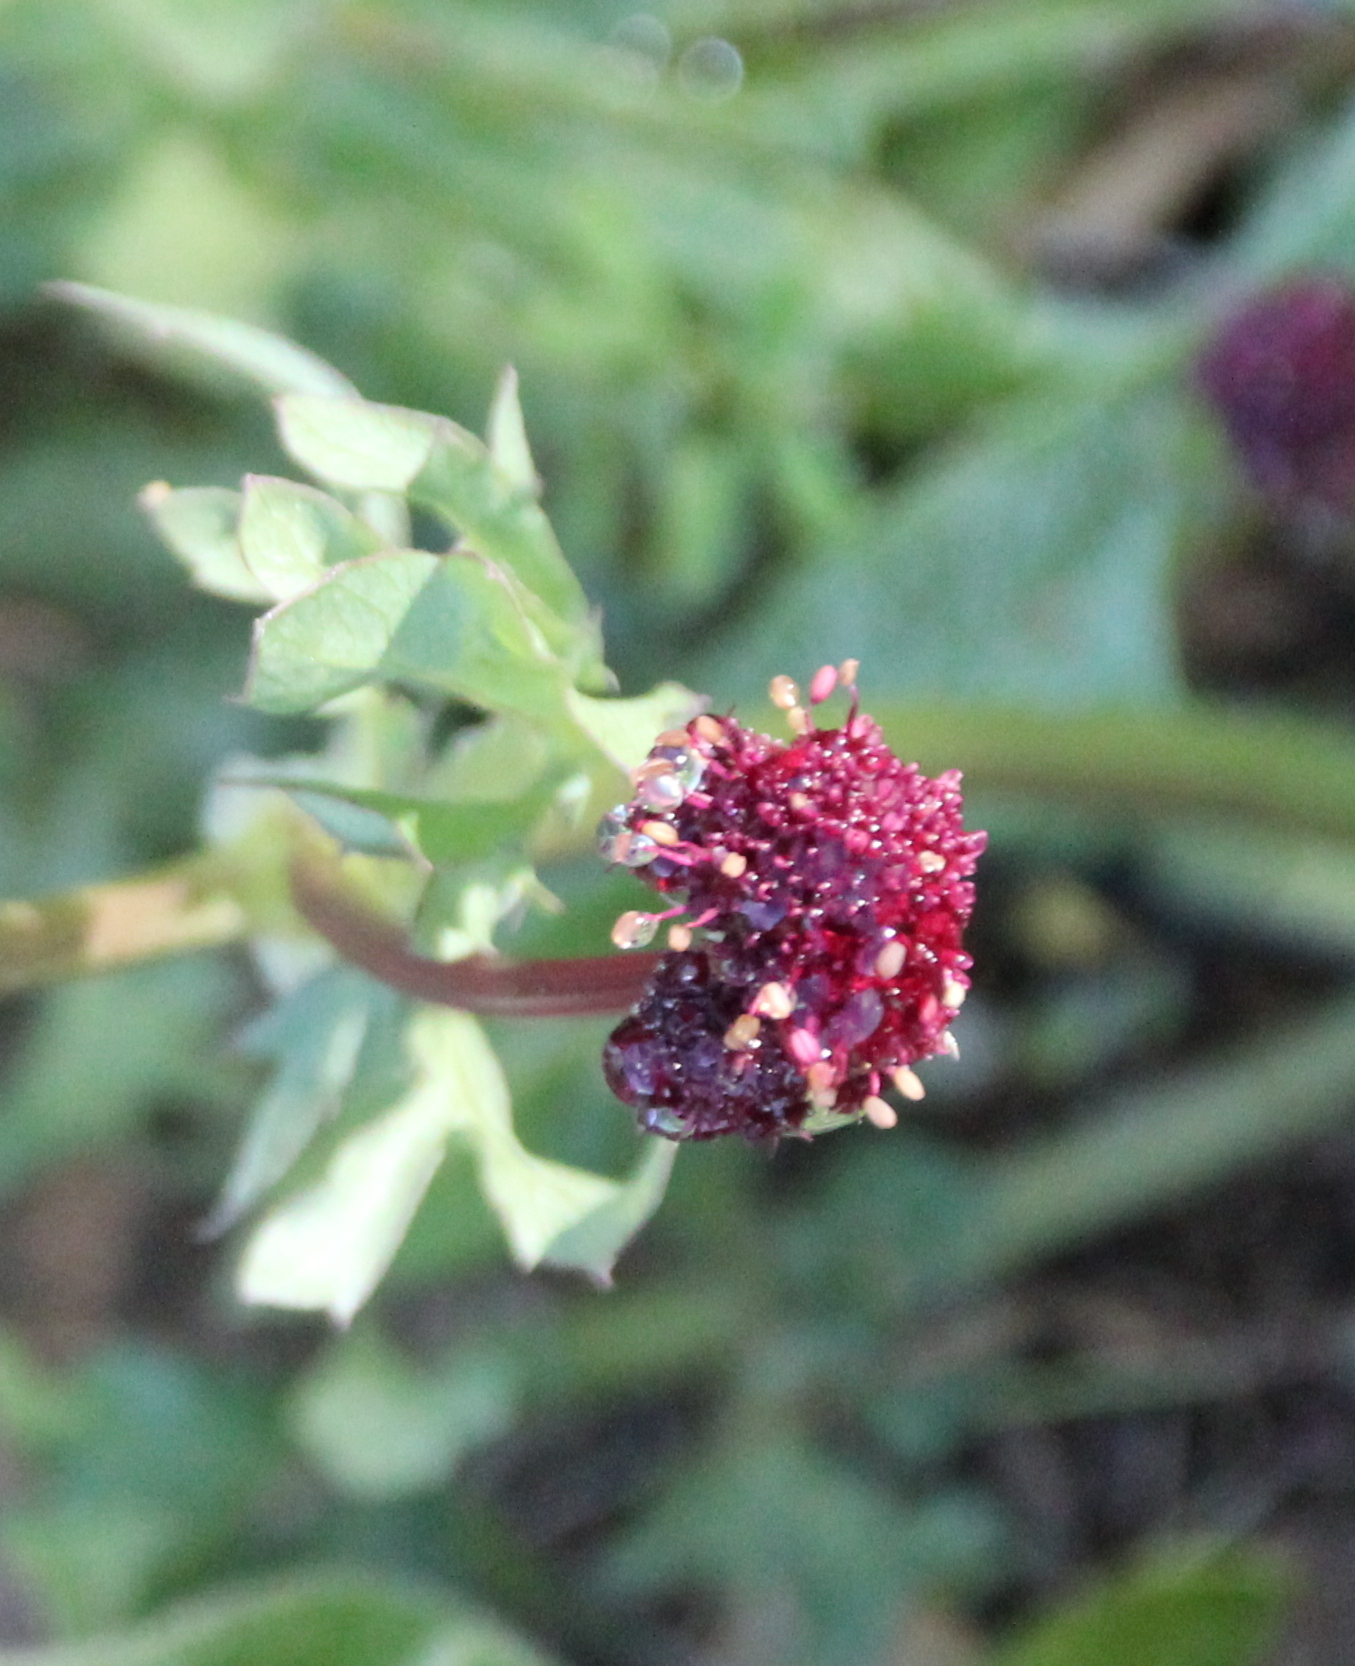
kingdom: Plantae
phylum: Tracheophyta
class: Magnoliopsida
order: Apiales
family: Apiaceae
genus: Sanicula
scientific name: Sanicula bipinnatifida
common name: Shoe-buttons
